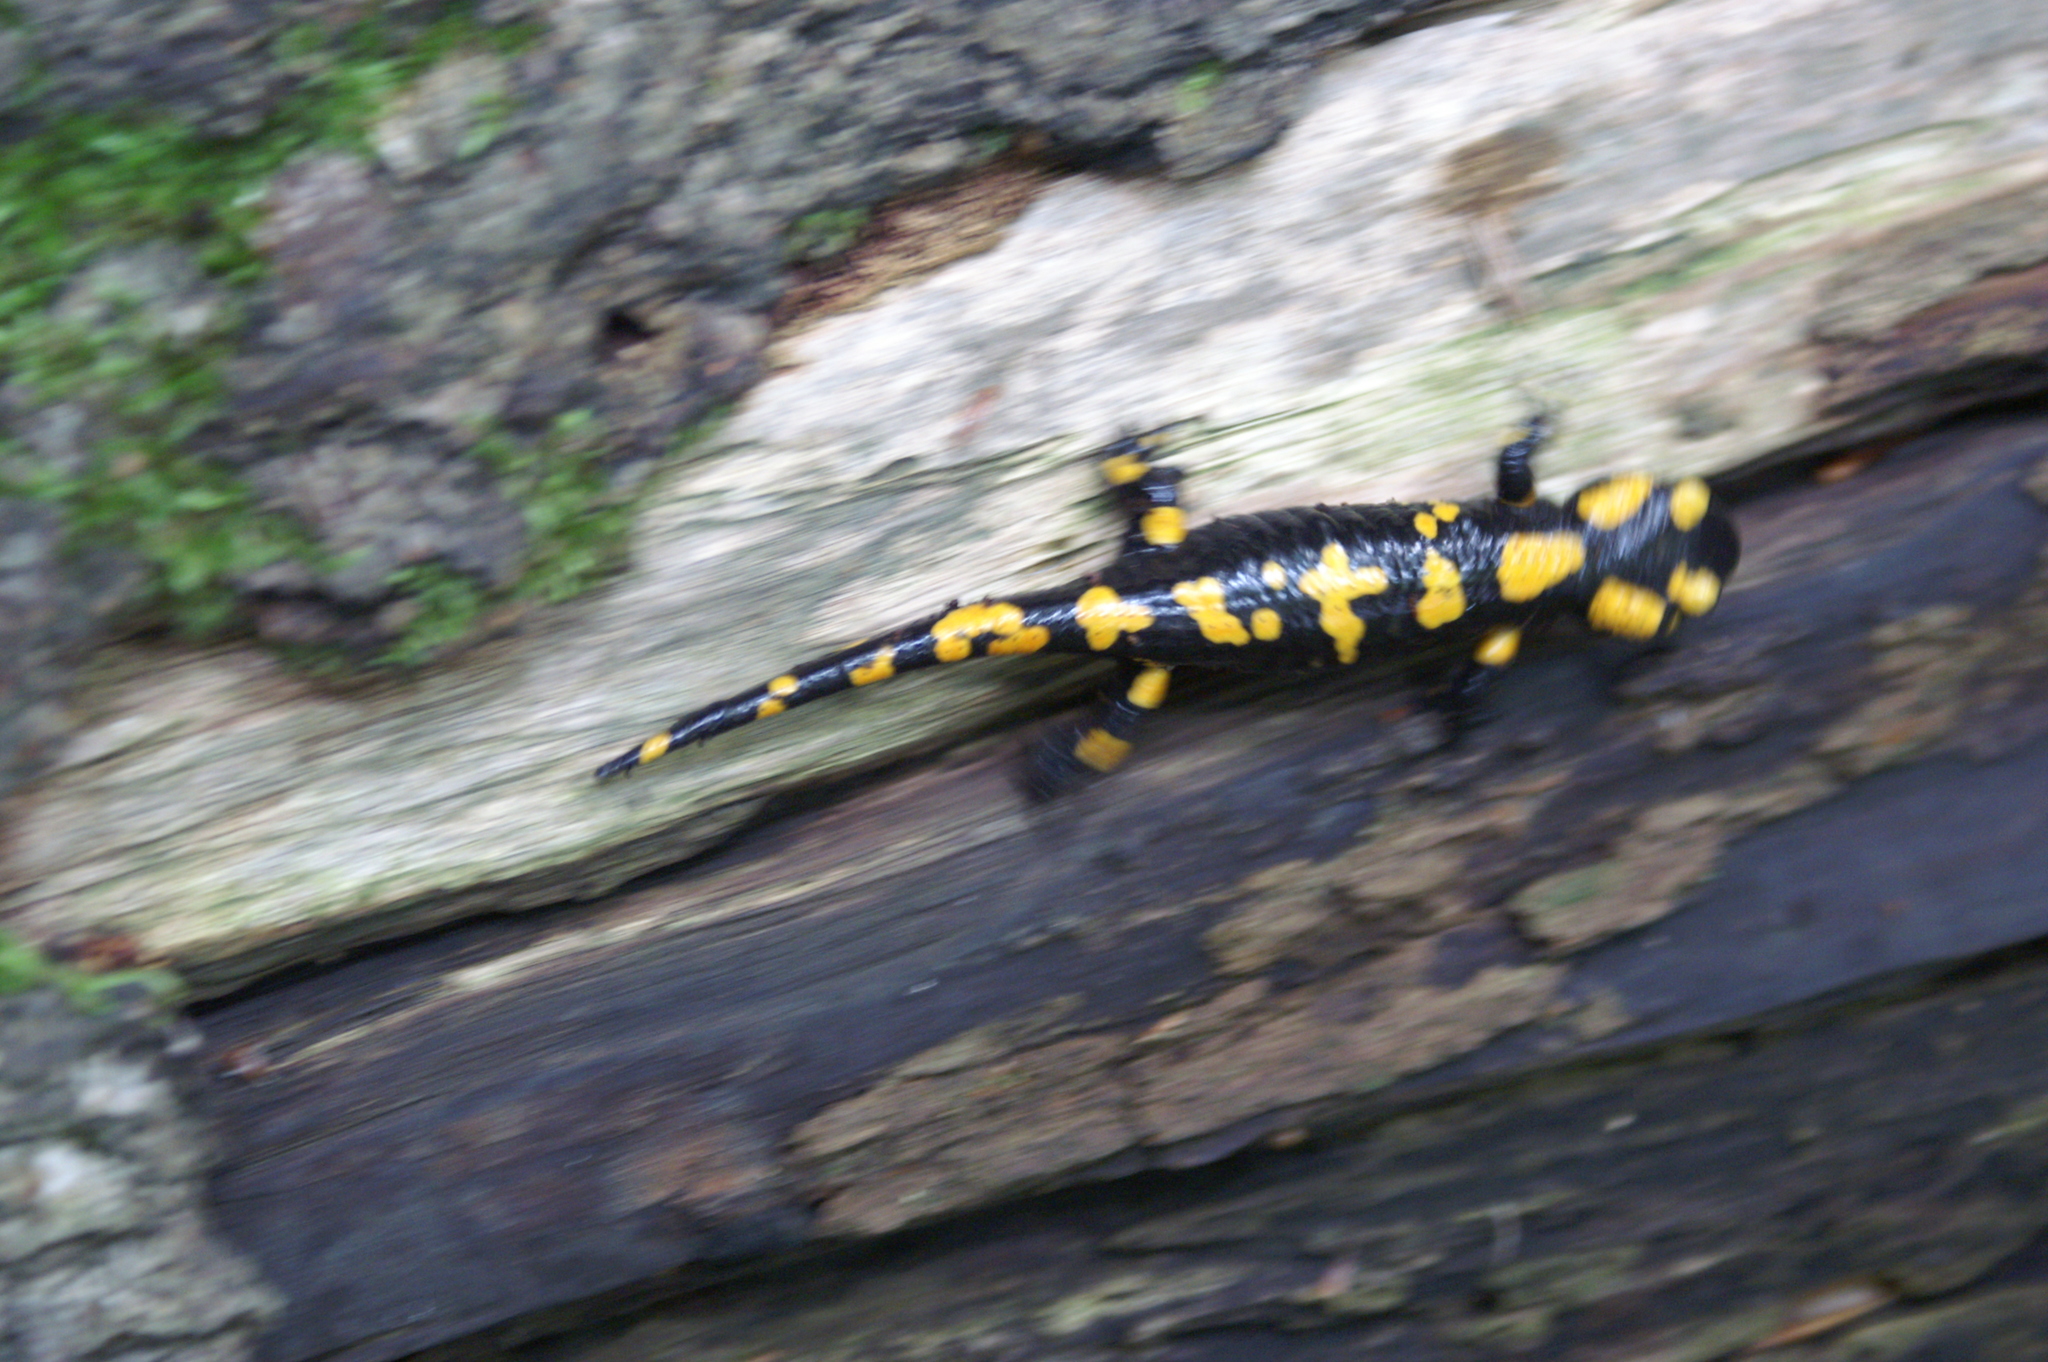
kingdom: Animalia
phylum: Chordata
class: Amphibia
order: Caudata
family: Salamandridae
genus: Salamandra
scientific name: Salamandra salamandra
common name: Fire salamander
